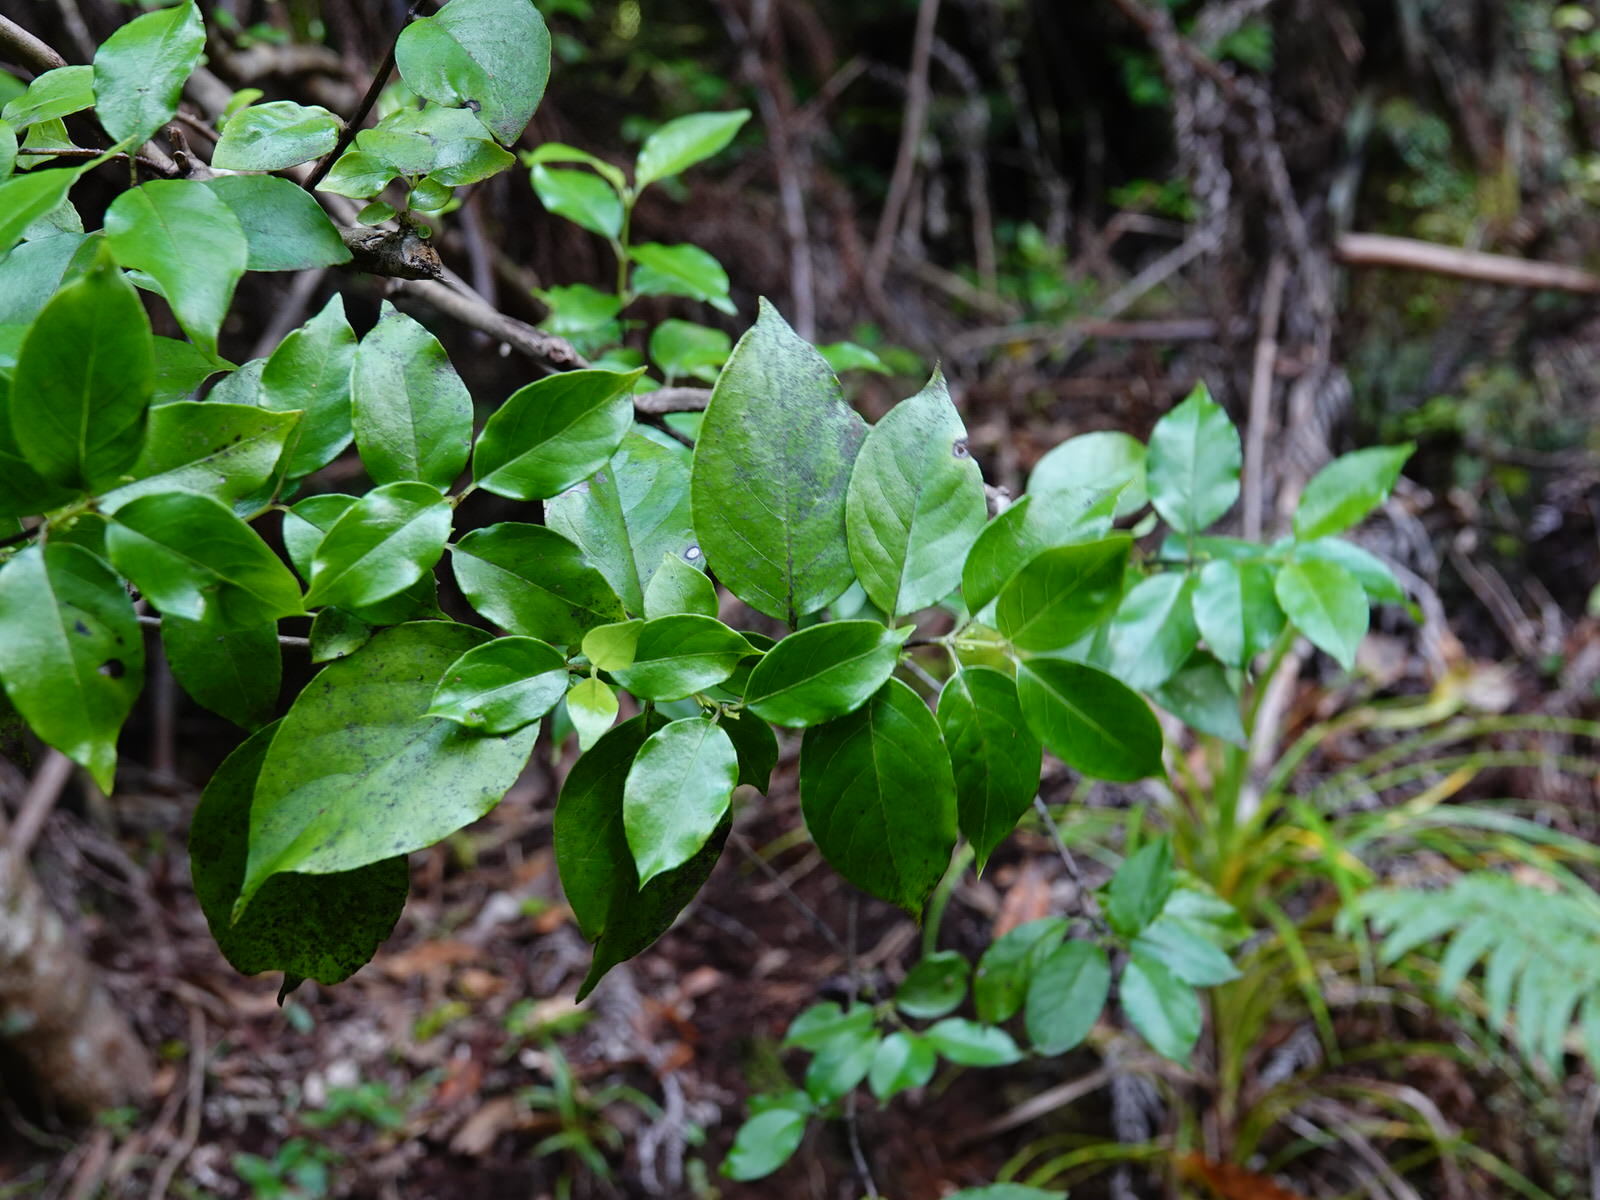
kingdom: Plantae
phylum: Tracheophyta
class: Magnoliopsida
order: Gentianales
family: Loganiaceae
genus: Geniostoma
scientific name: Geniostoma ligustrifolium
